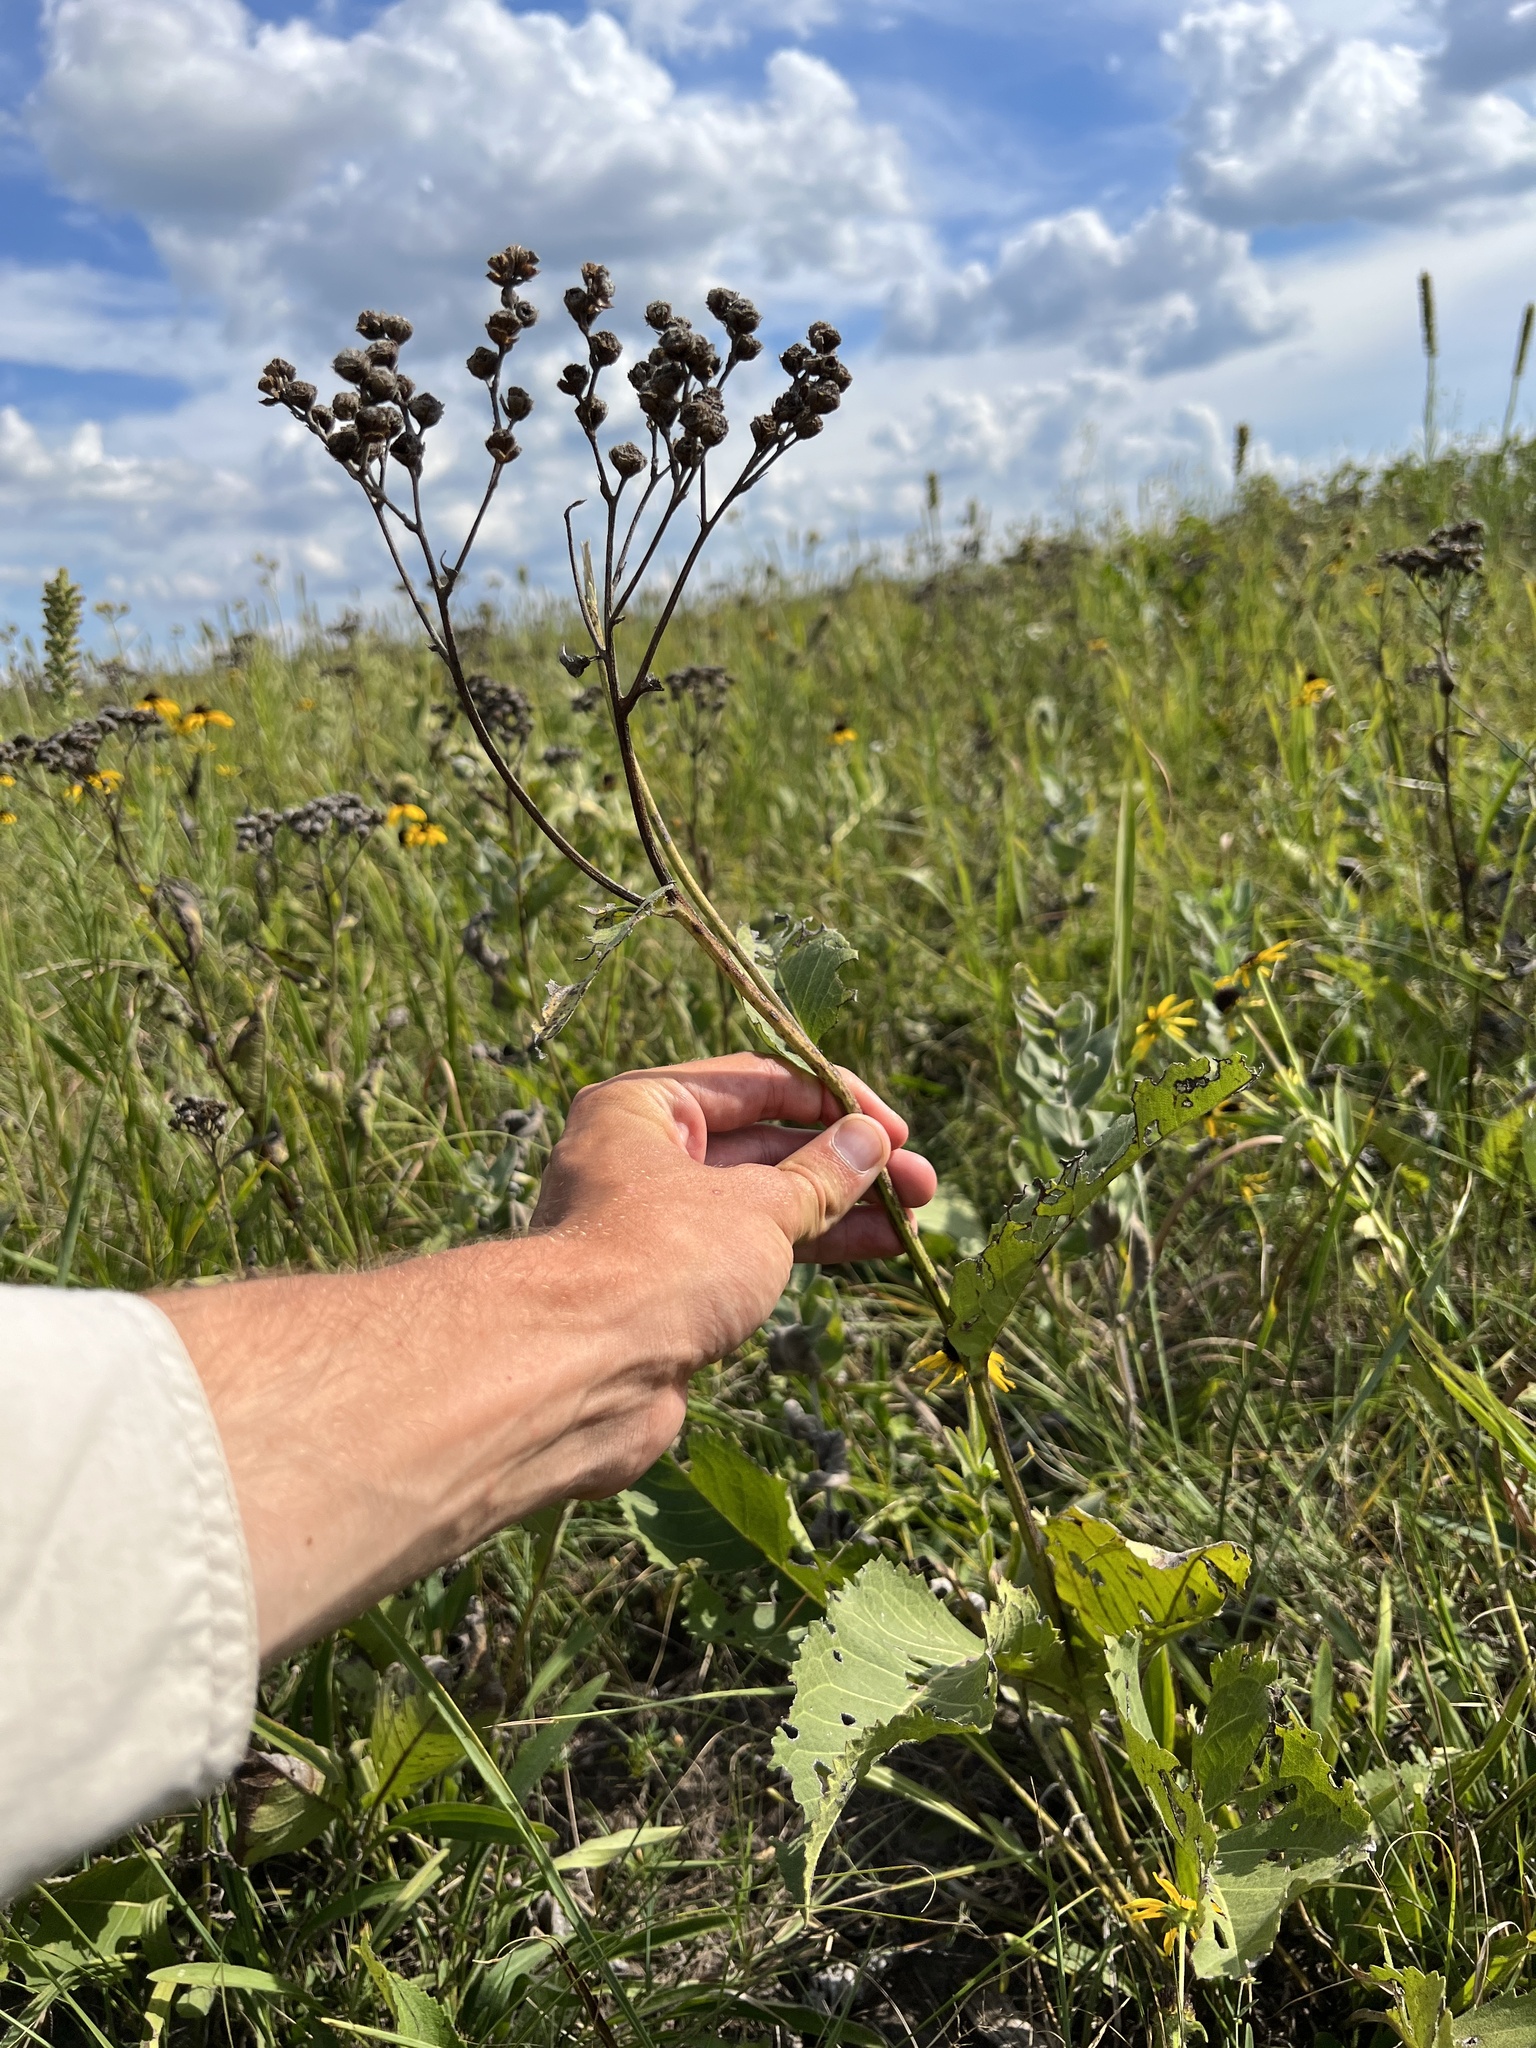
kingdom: Plantae
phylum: Tracheophyta
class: Magnoliopsida
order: Asterales
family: Asteraceae
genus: Parthenium
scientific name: Parthenium hispidum
